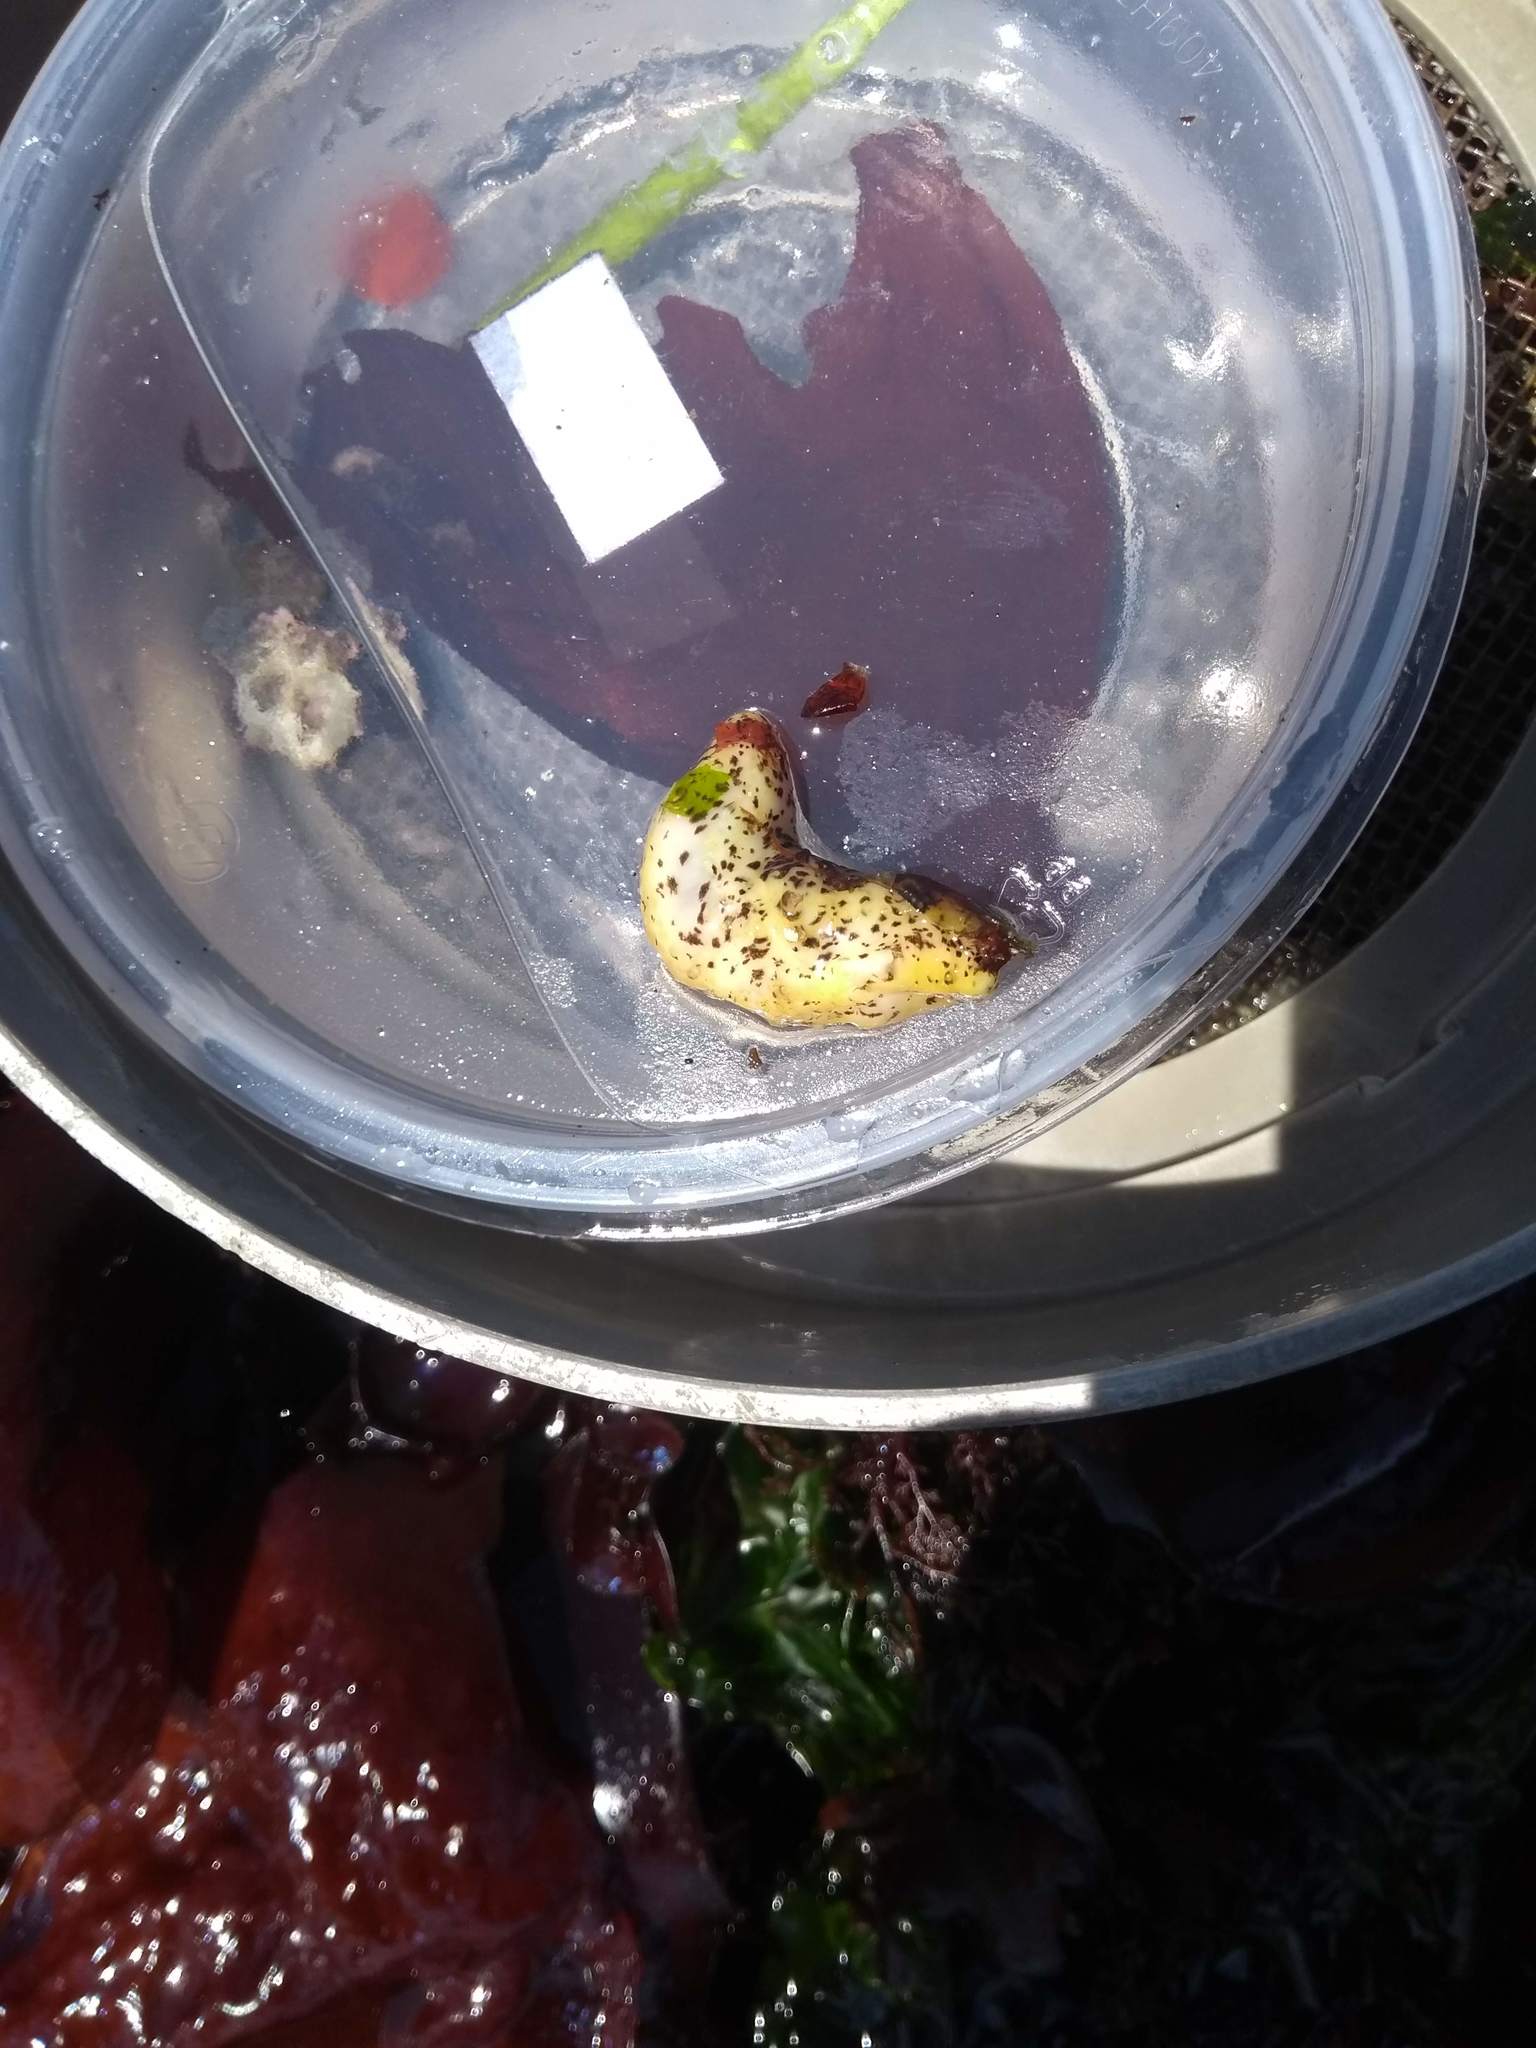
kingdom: Animalia
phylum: Echinodermata
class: Holothuroidea
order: Dendrochirotida
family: Cucumariidae
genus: Cucumaria
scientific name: Cucumaria piperata
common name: Peppered sea cucumber
